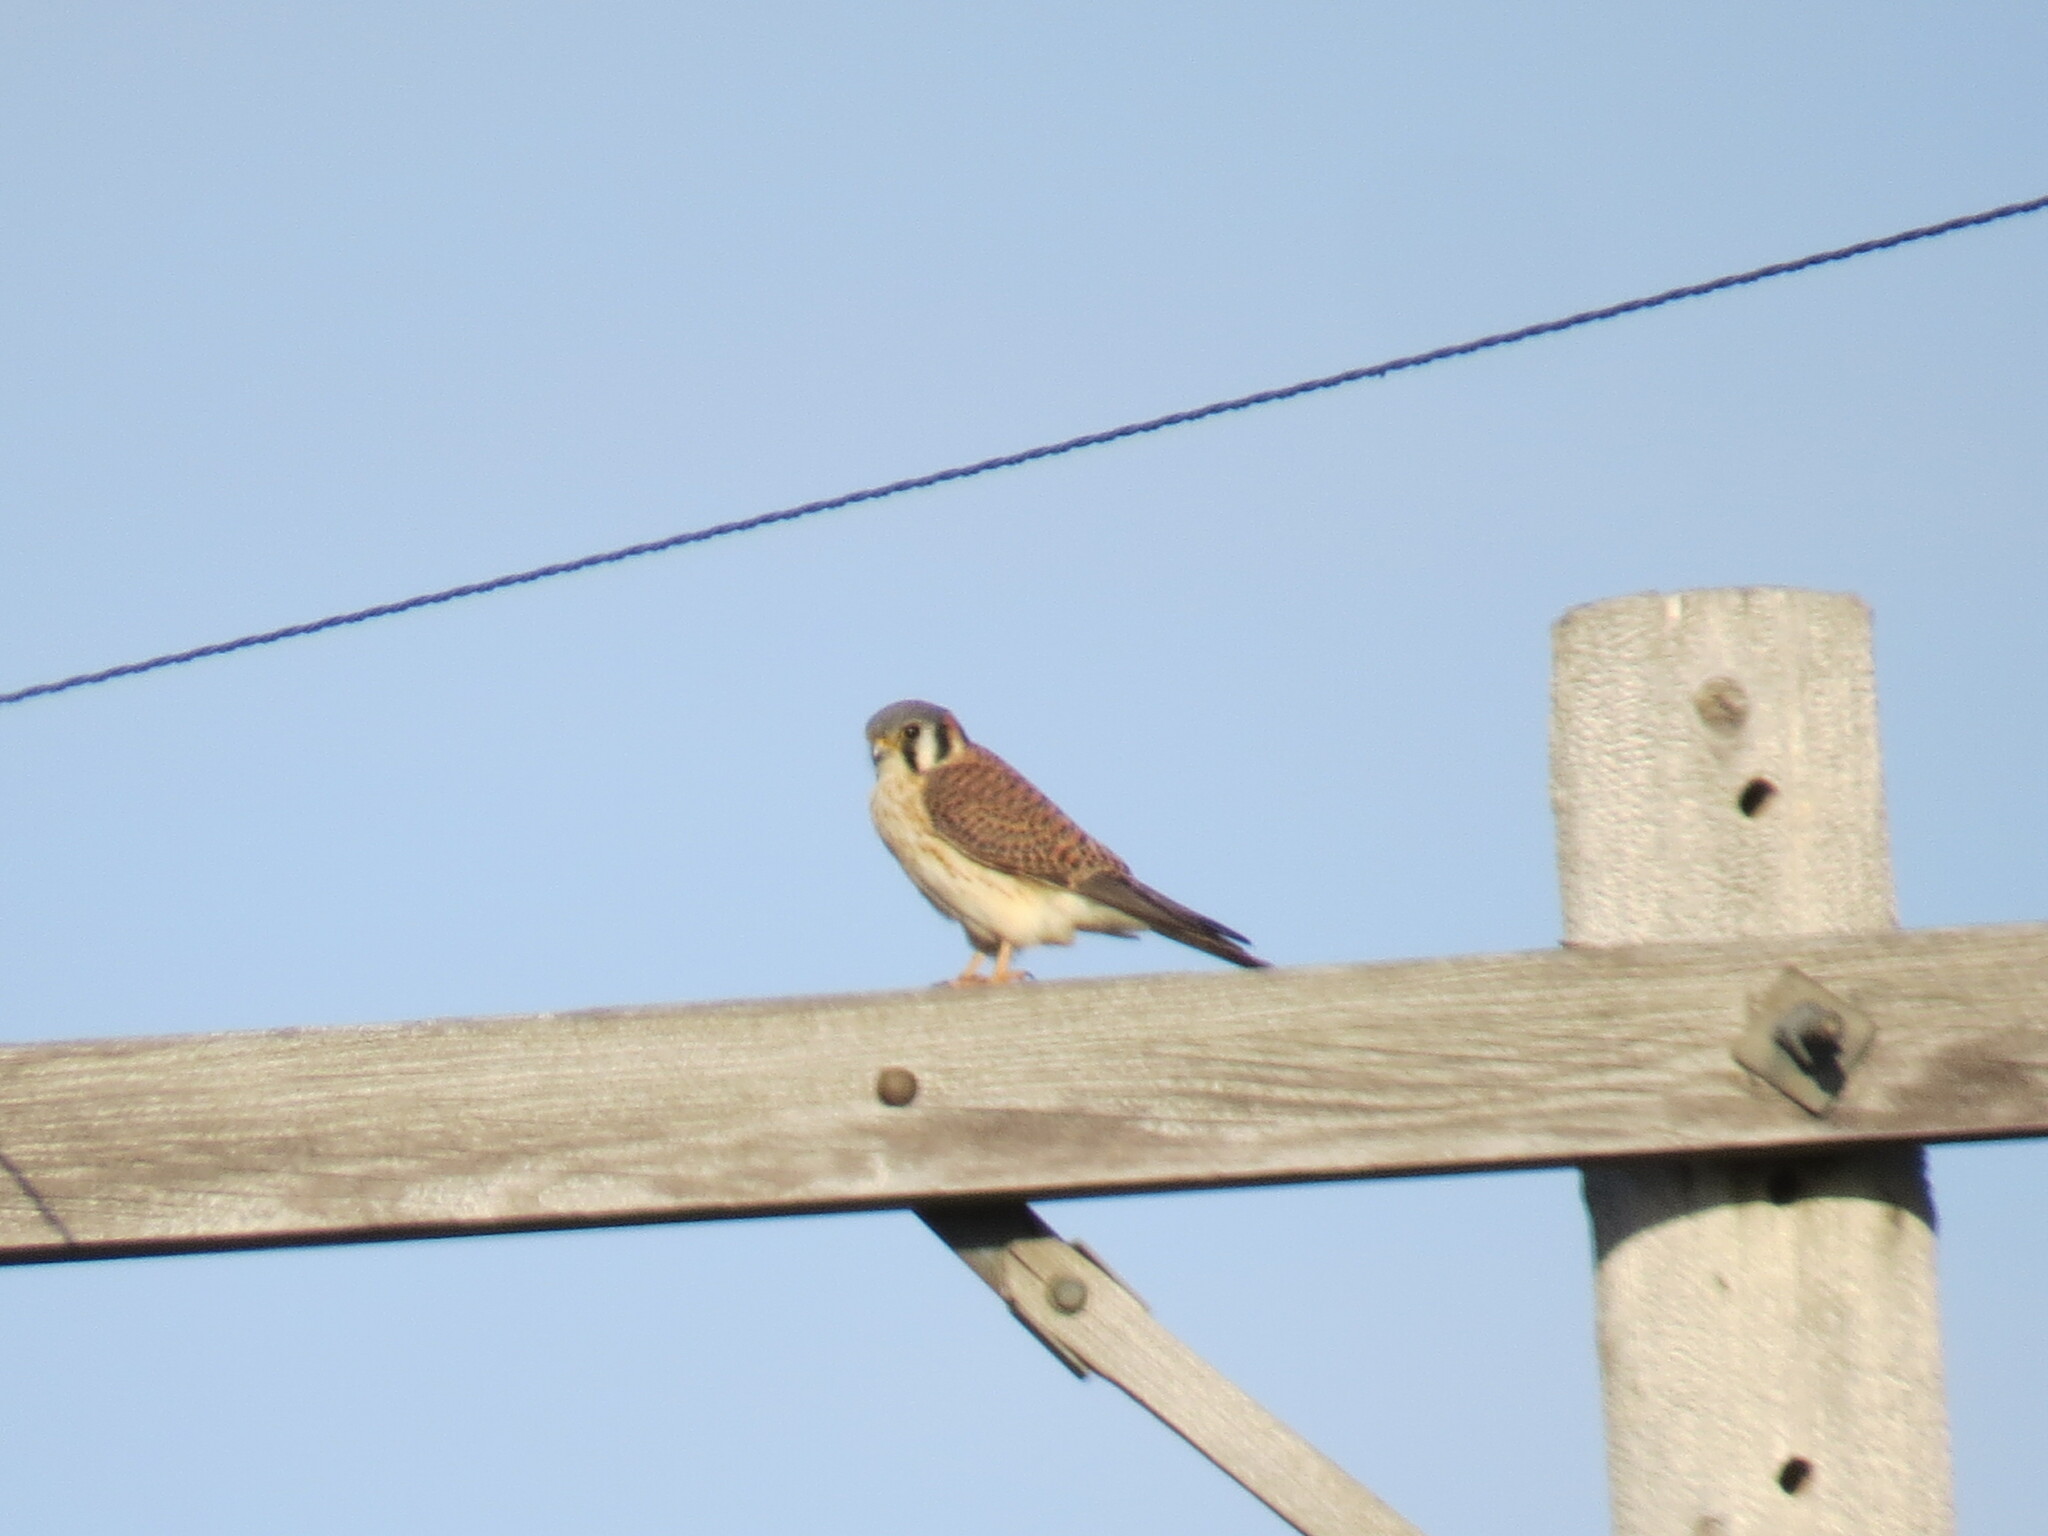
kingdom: Animalia
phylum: Chordata
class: Aves
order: Falconiformes
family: Falconidae
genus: Falco
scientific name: Falco sparverius
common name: American kestrel
